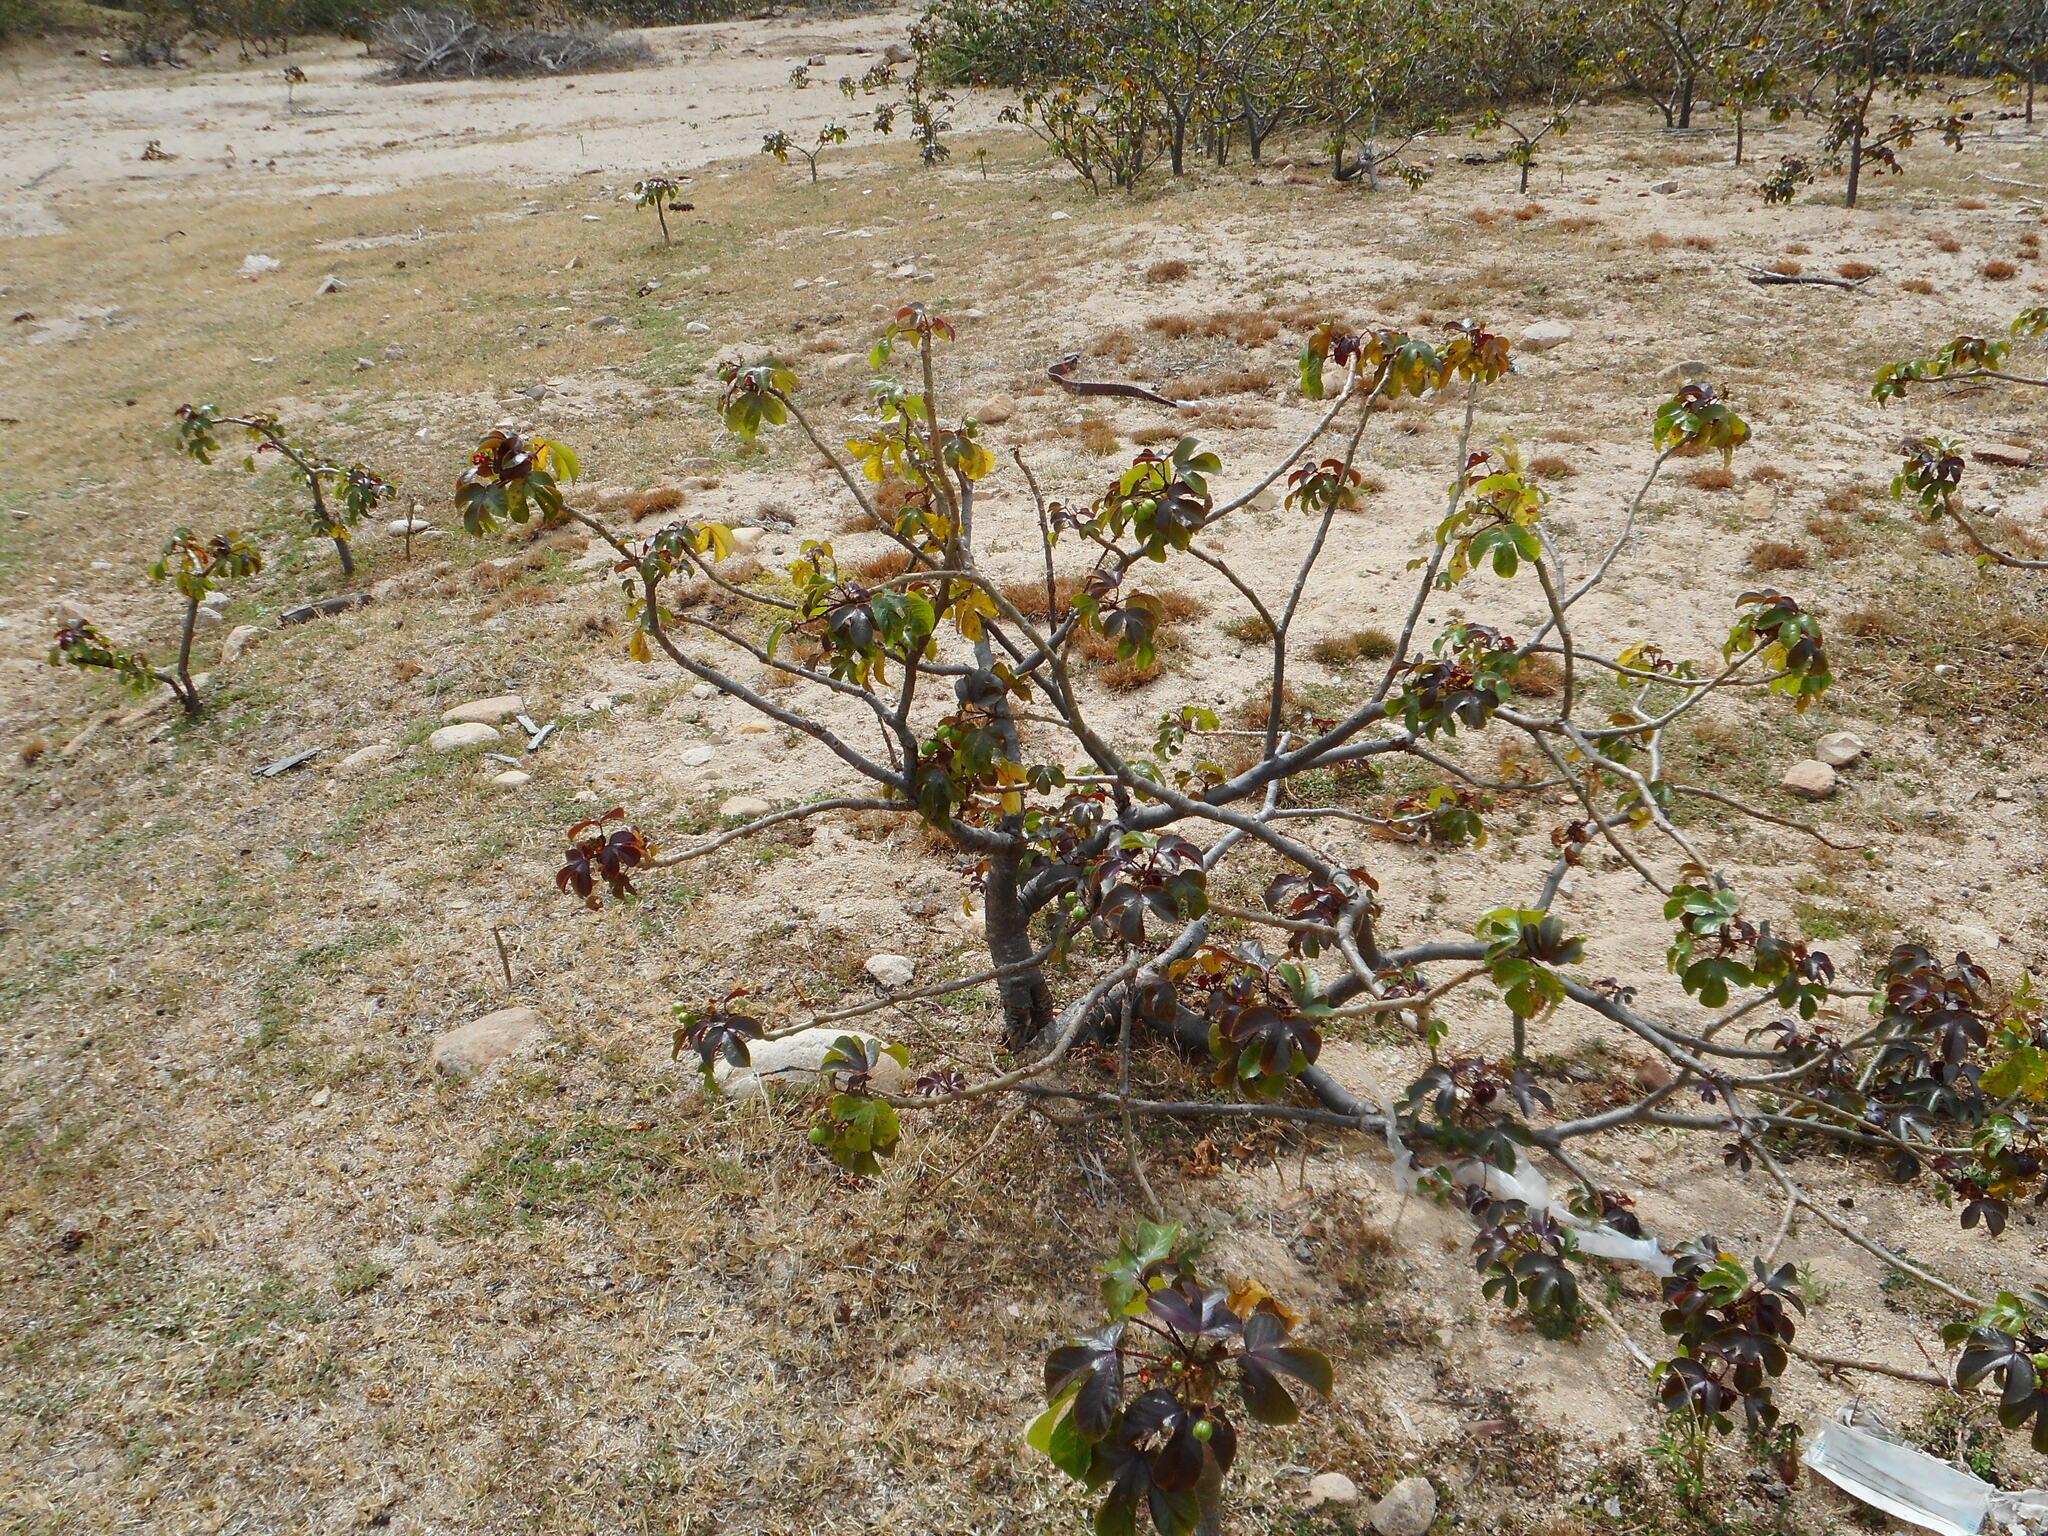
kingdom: Plantae
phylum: Tracheophyta
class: Magnoliopsida
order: Malpighiales
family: Euphorbiaceae
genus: Jatropha
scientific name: Jatropha gossypiifolia
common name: Bellyache bush
